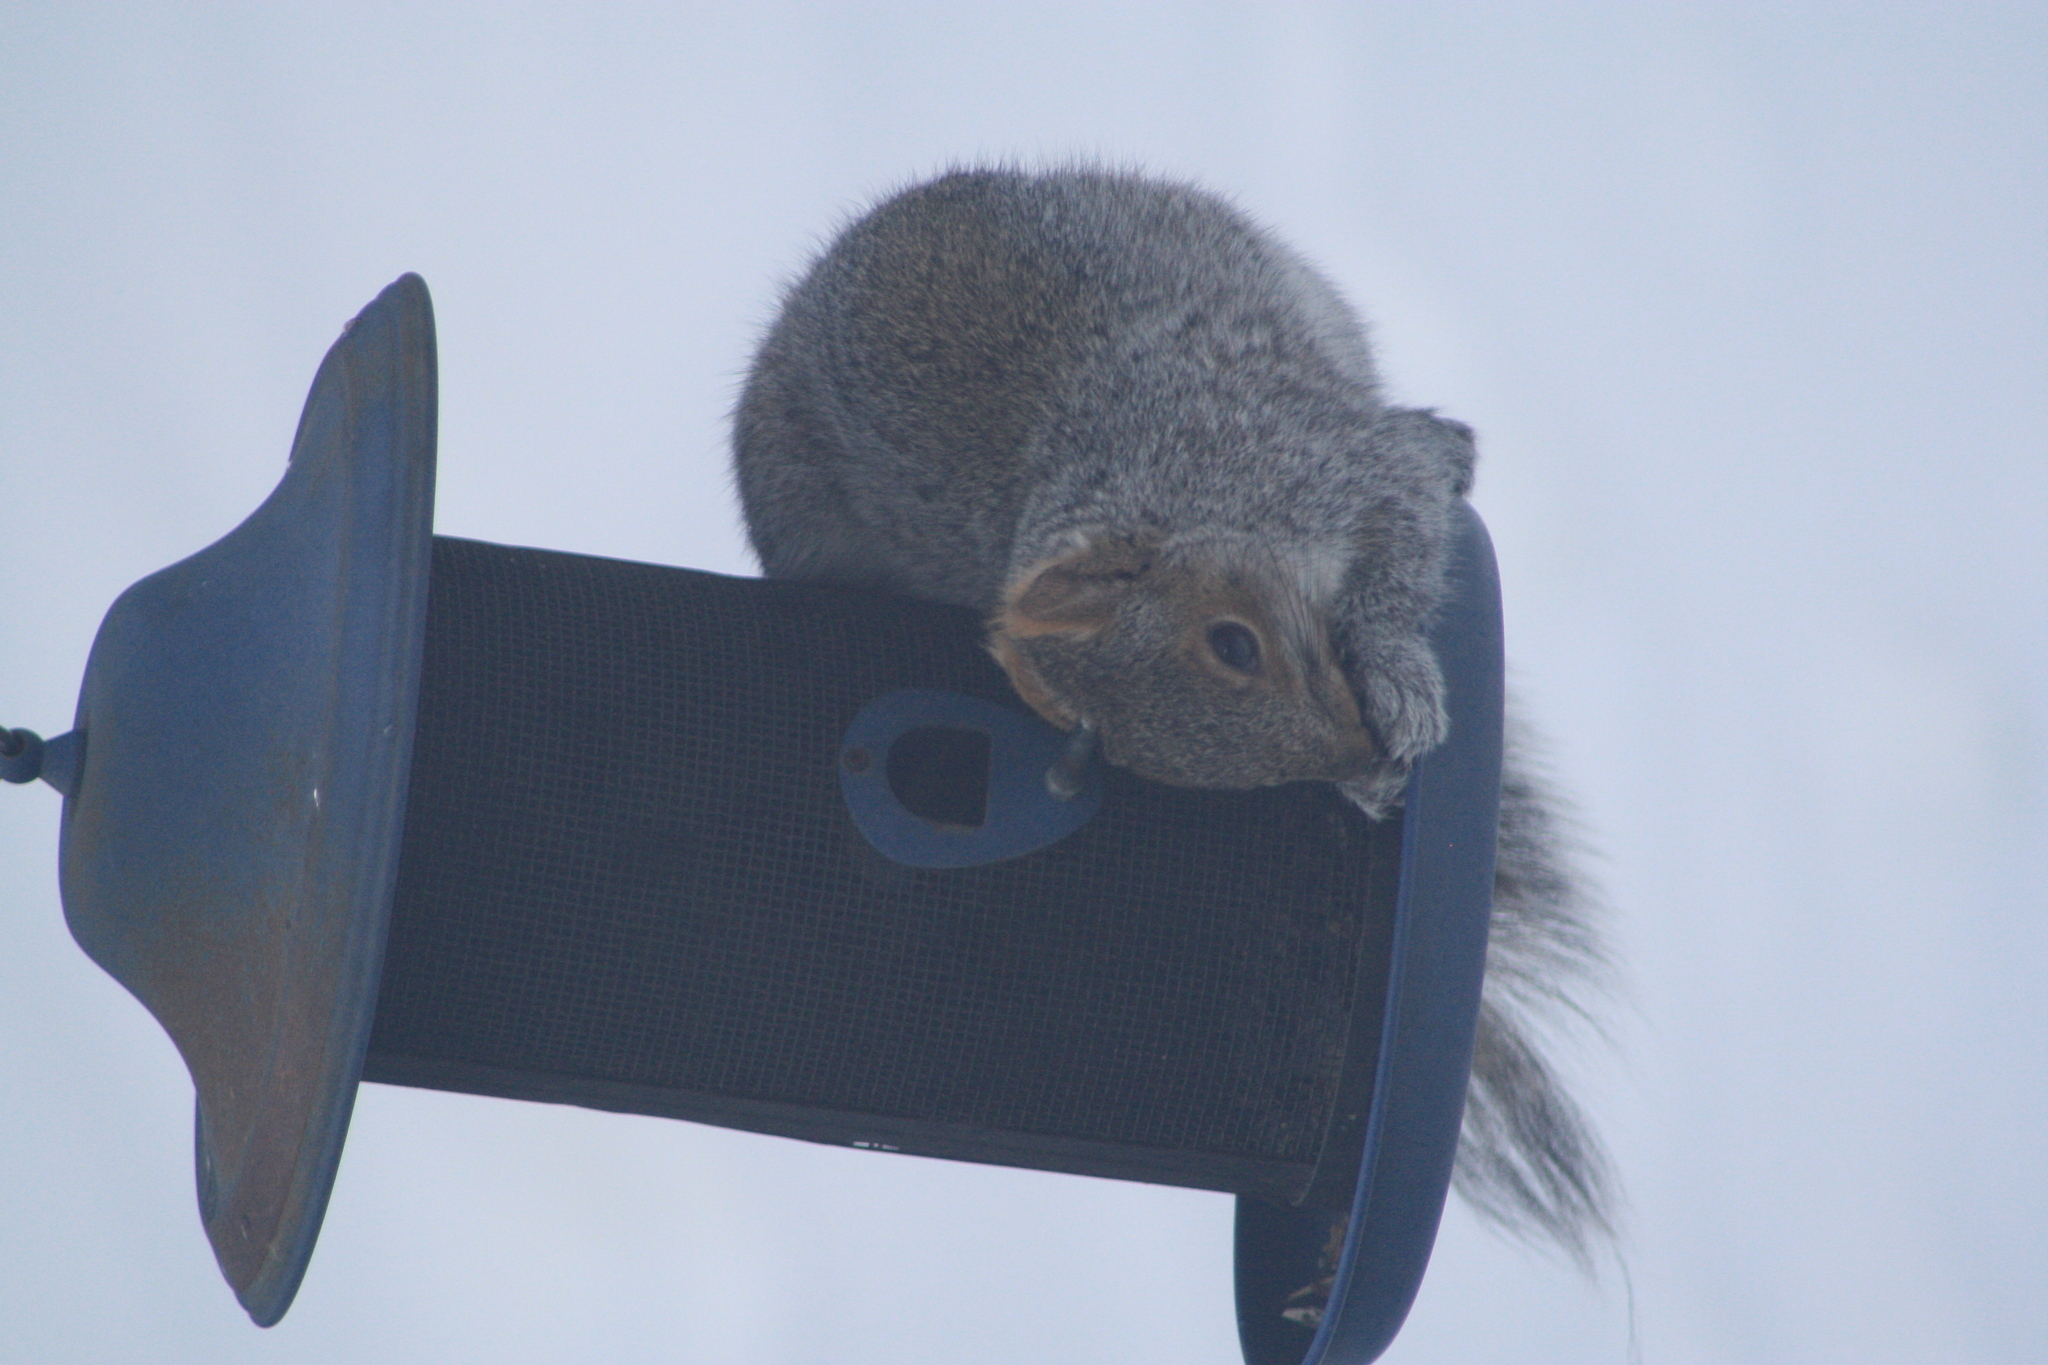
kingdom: Animalia
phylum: Chordata
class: Mammalia
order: Rodentia
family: Sciuridae
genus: Sciurus
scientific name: Sciurus carolinensis
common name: Eastern gray squirrel
